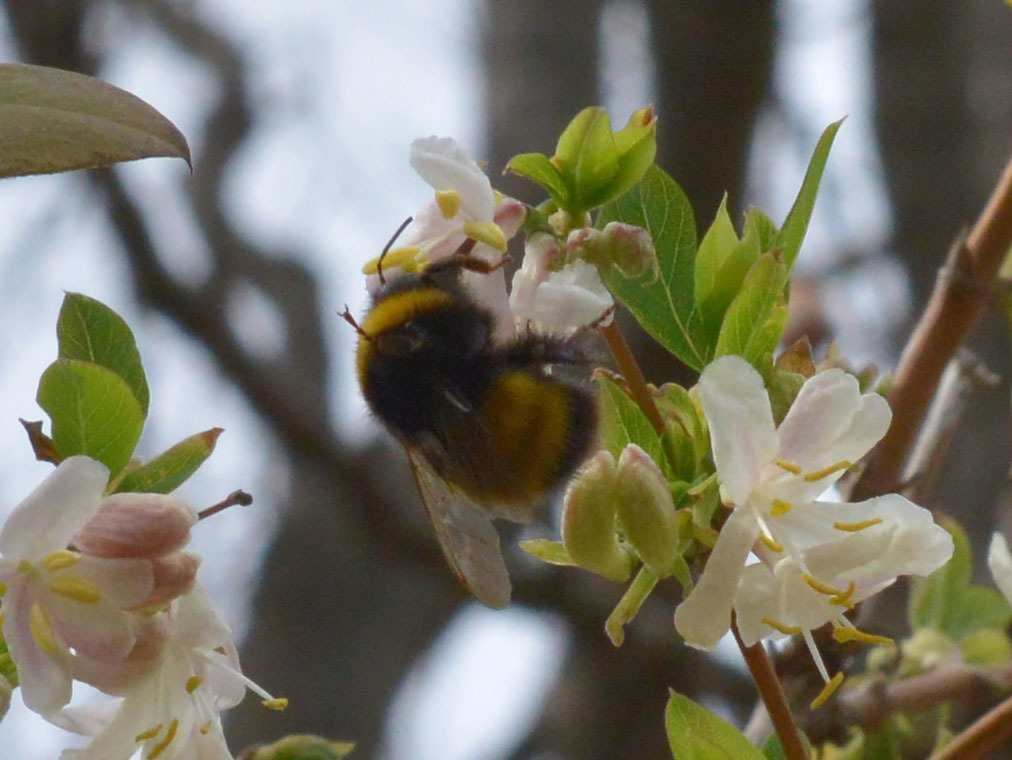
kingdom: Animalia
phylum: Arthropoda
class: Insecta
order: Hymenoptera
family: Apidae
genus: Bombus
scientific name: Bombus haematurus
